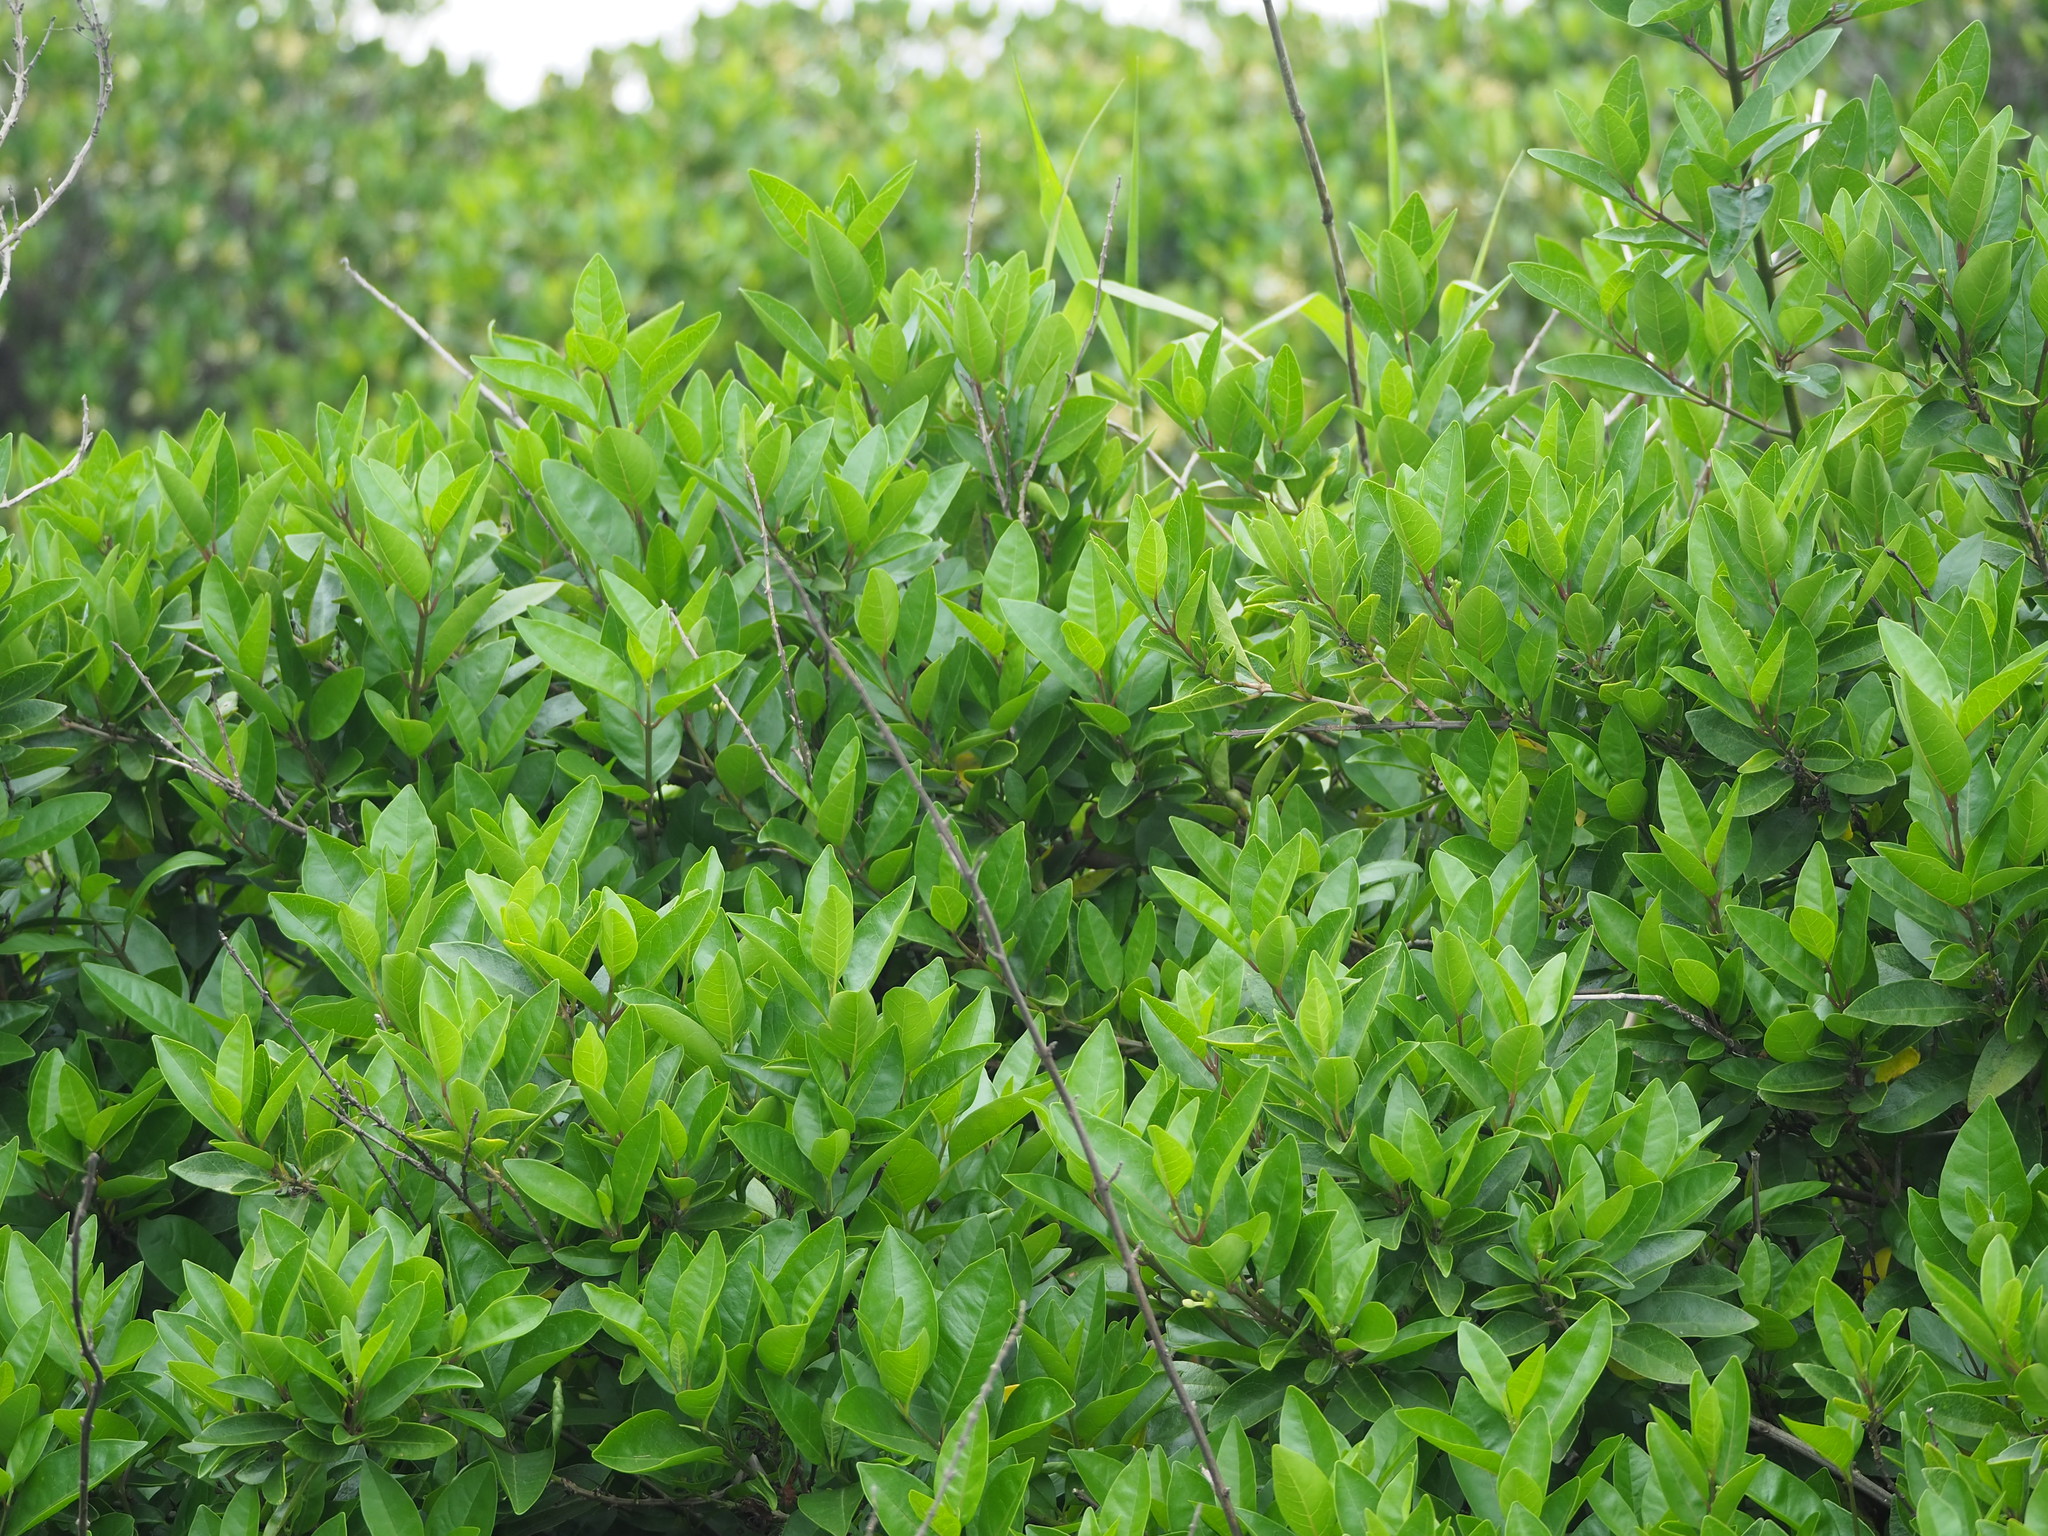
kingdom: Plantae
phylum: Tracheophyta
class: Magnoliopsida
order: Lamiales
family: Lamiaceae
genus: Volkameria
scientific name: Volkameria inermis
